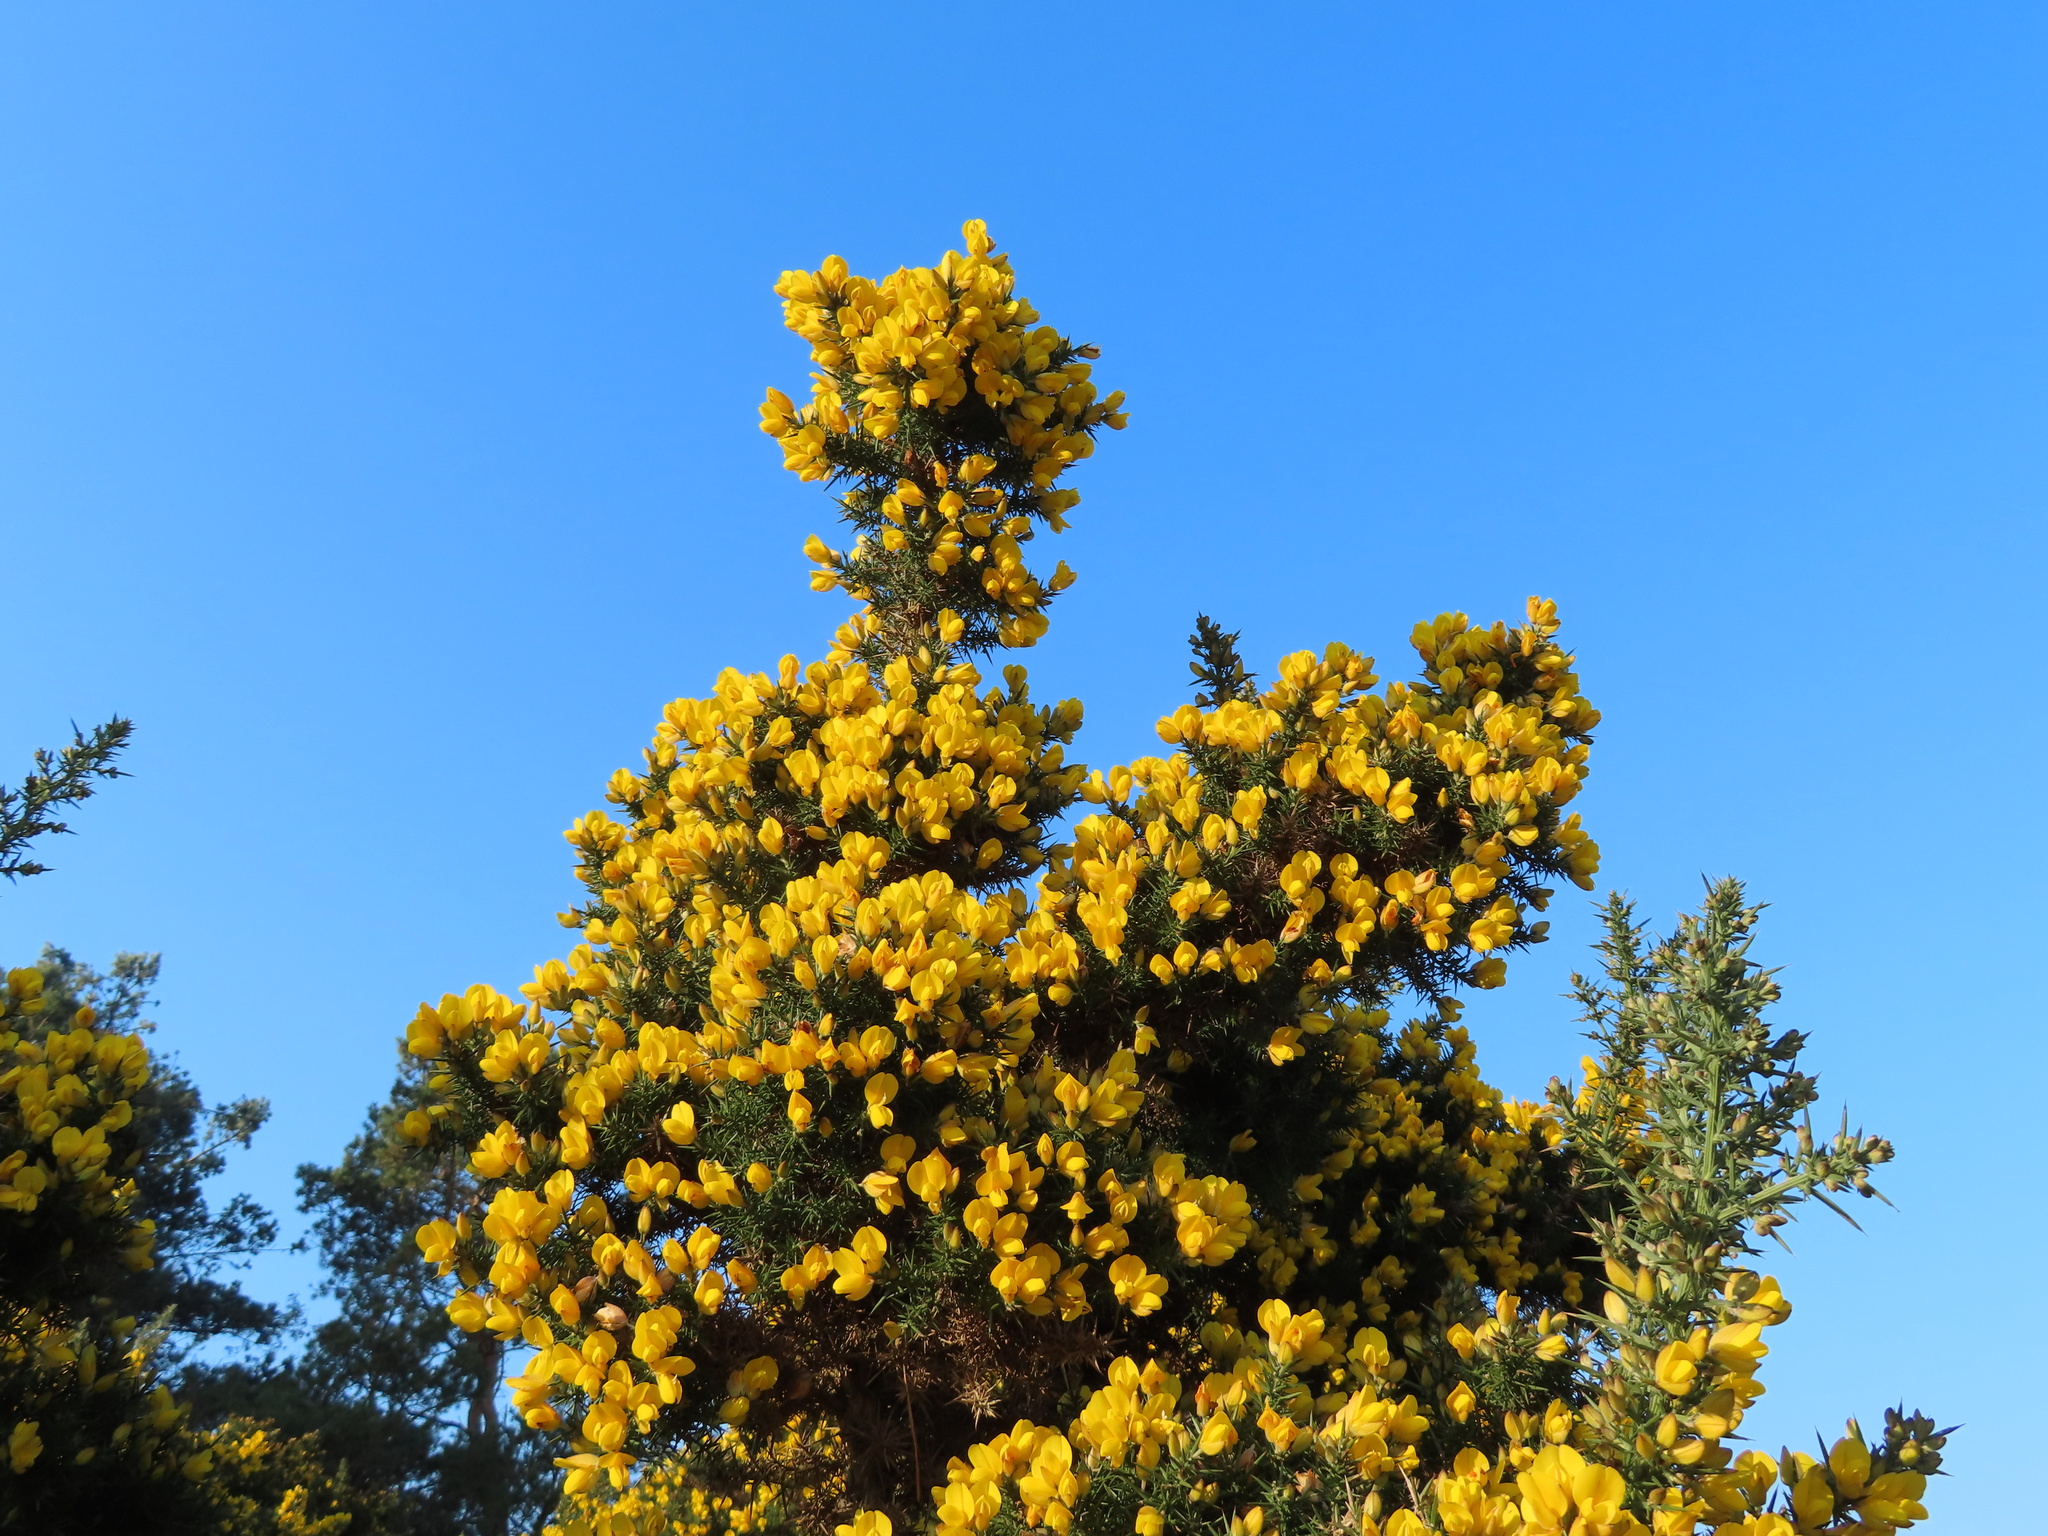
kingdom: Plantae
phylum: Tracheophyta
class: Magnoliopsida
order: Fabales
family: Fabaceae
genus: Ulex
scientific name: Ulex europaeus
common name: Common gorse
